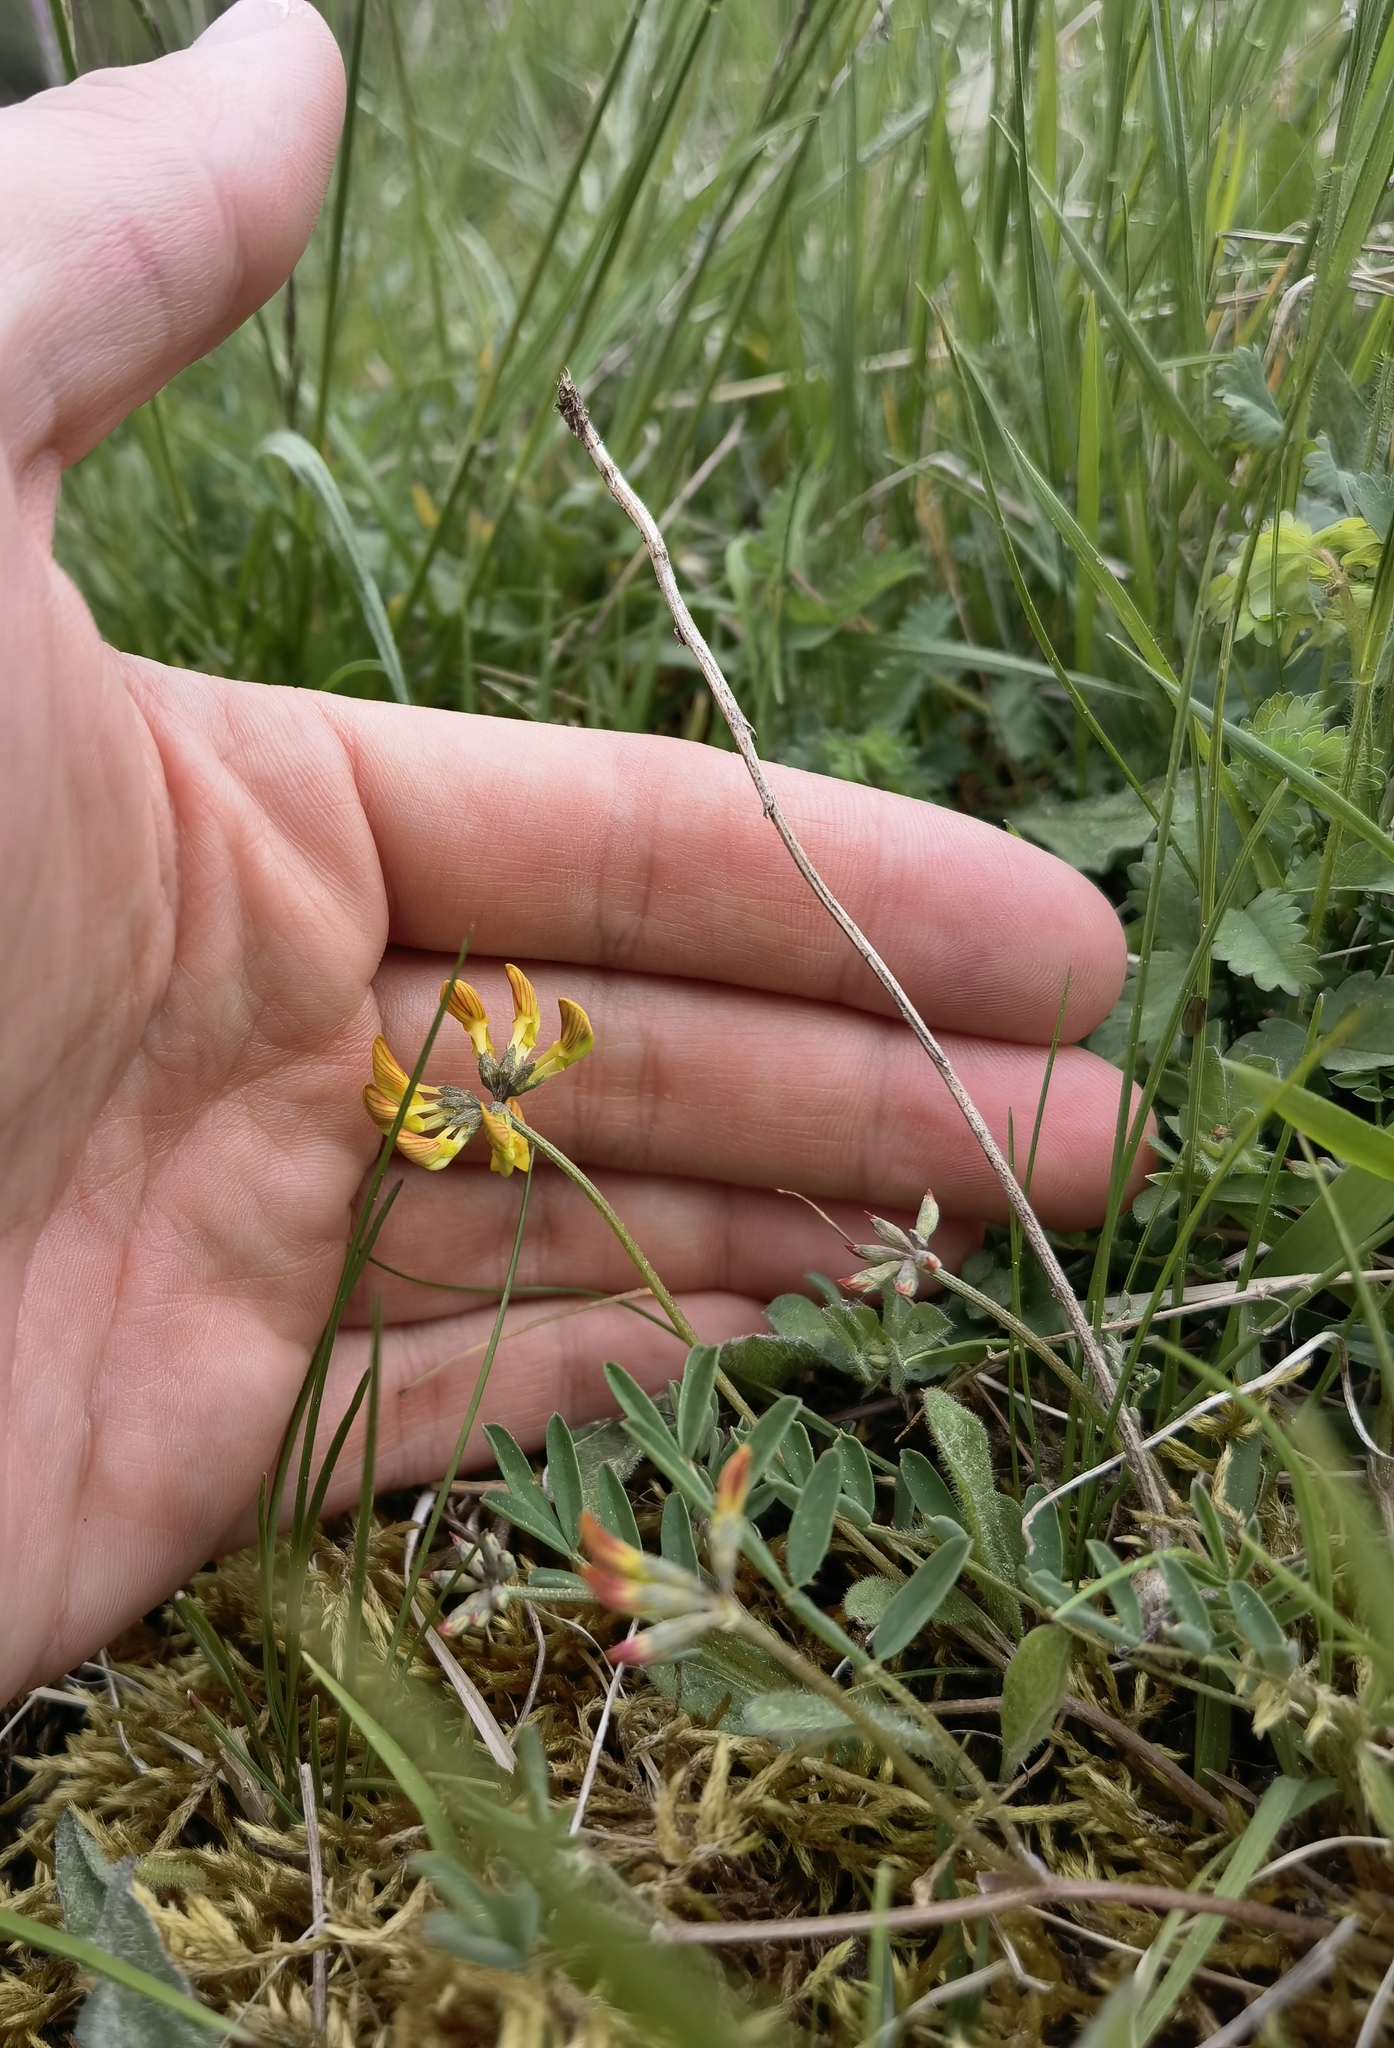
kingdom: Plantae
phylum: Tracheophyta
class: Magnoliopsida
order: Fabales
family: Fabaceae
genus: Hippocrepis
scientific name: Hippocrepis comosa
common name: Horseshoe vetch
